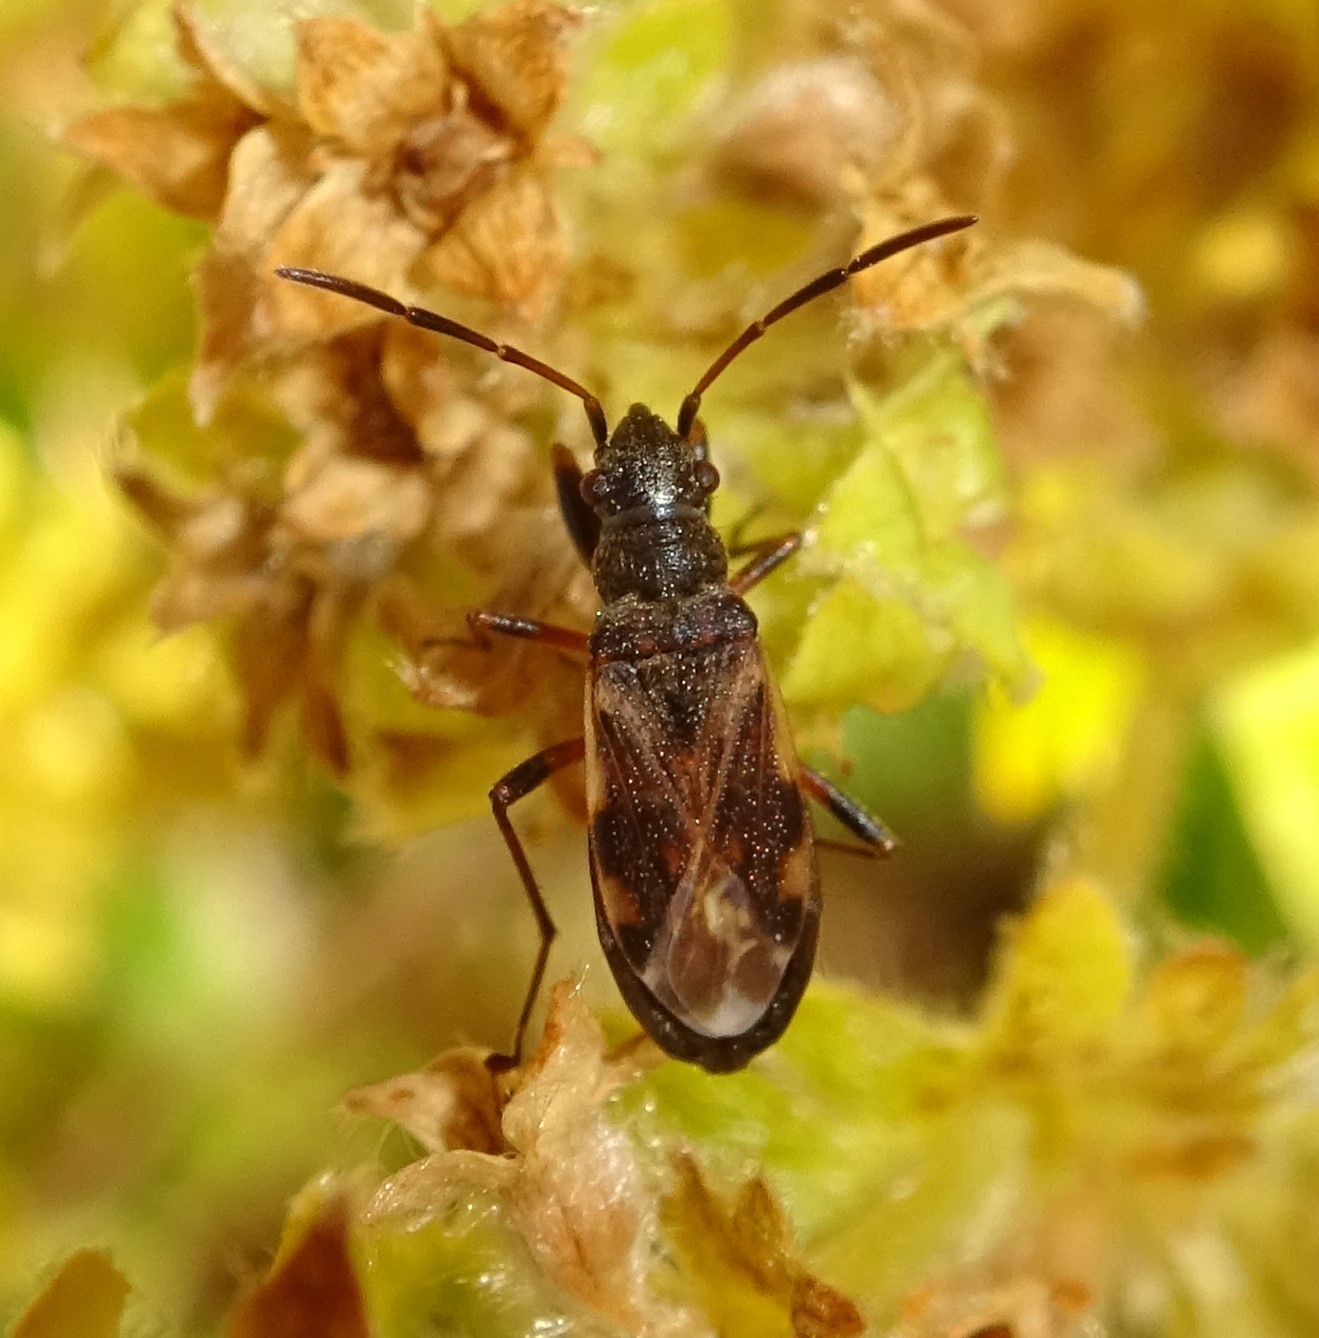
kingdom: Animalia
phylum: Arthropoda
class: Insecta
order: Hemiptera
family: Rhyparochromidae
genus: Ligyrocoris
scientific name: Ligyrocoris sylvestris
